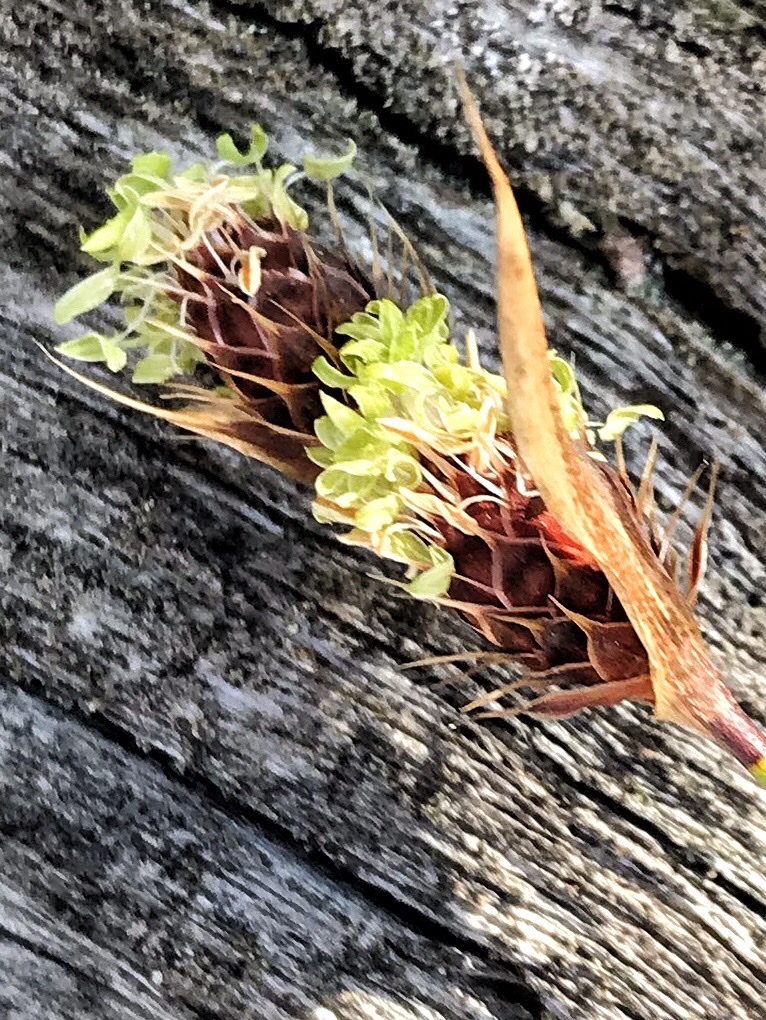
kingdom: Plantae
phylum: Tracheophyta
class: Liliopsida
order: Poales
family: Restionaceae
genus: Hypodiscus
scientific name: Hypodiscus aristatus
